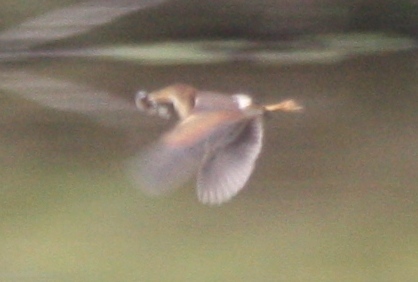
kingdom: Animalia
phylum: Chordata
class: Aves
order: Pelecaniformes
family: Ardeidae
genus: Ixobrychus
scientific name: Ixobrychus exilis
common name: Least bittern
